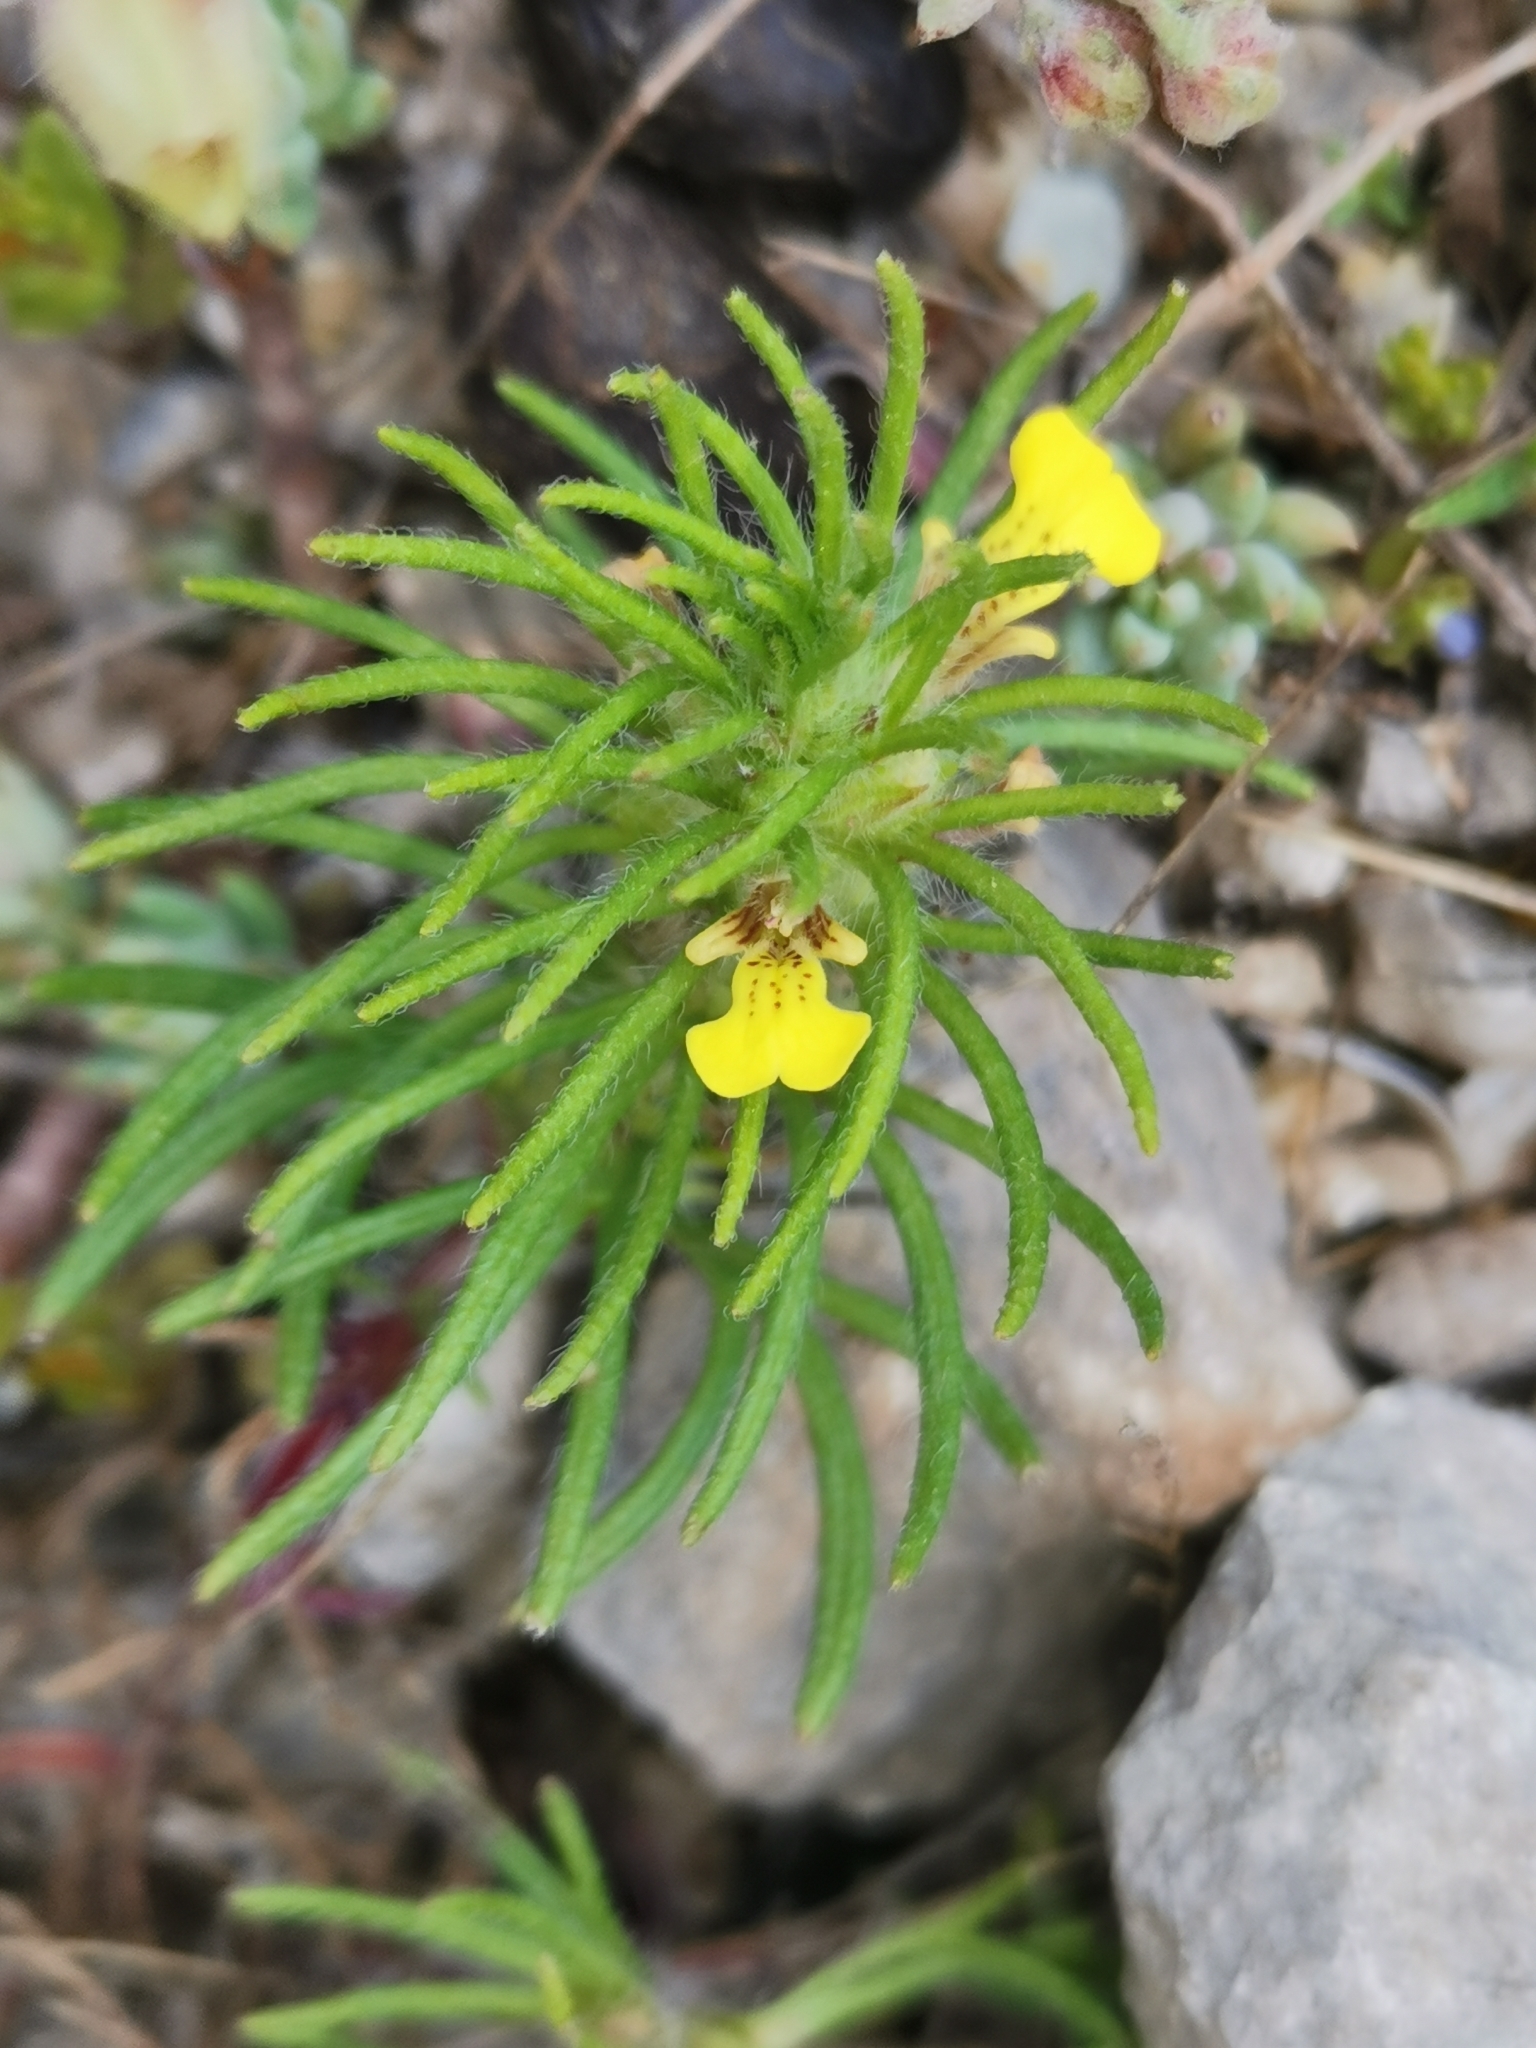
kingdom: Plantae
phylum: Tracheophyta
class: Magnoliopsida
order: Lamiales
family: Lamiaceae
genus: Ajuga
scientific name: Ajuga chamaepitys
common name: Ground-pine
